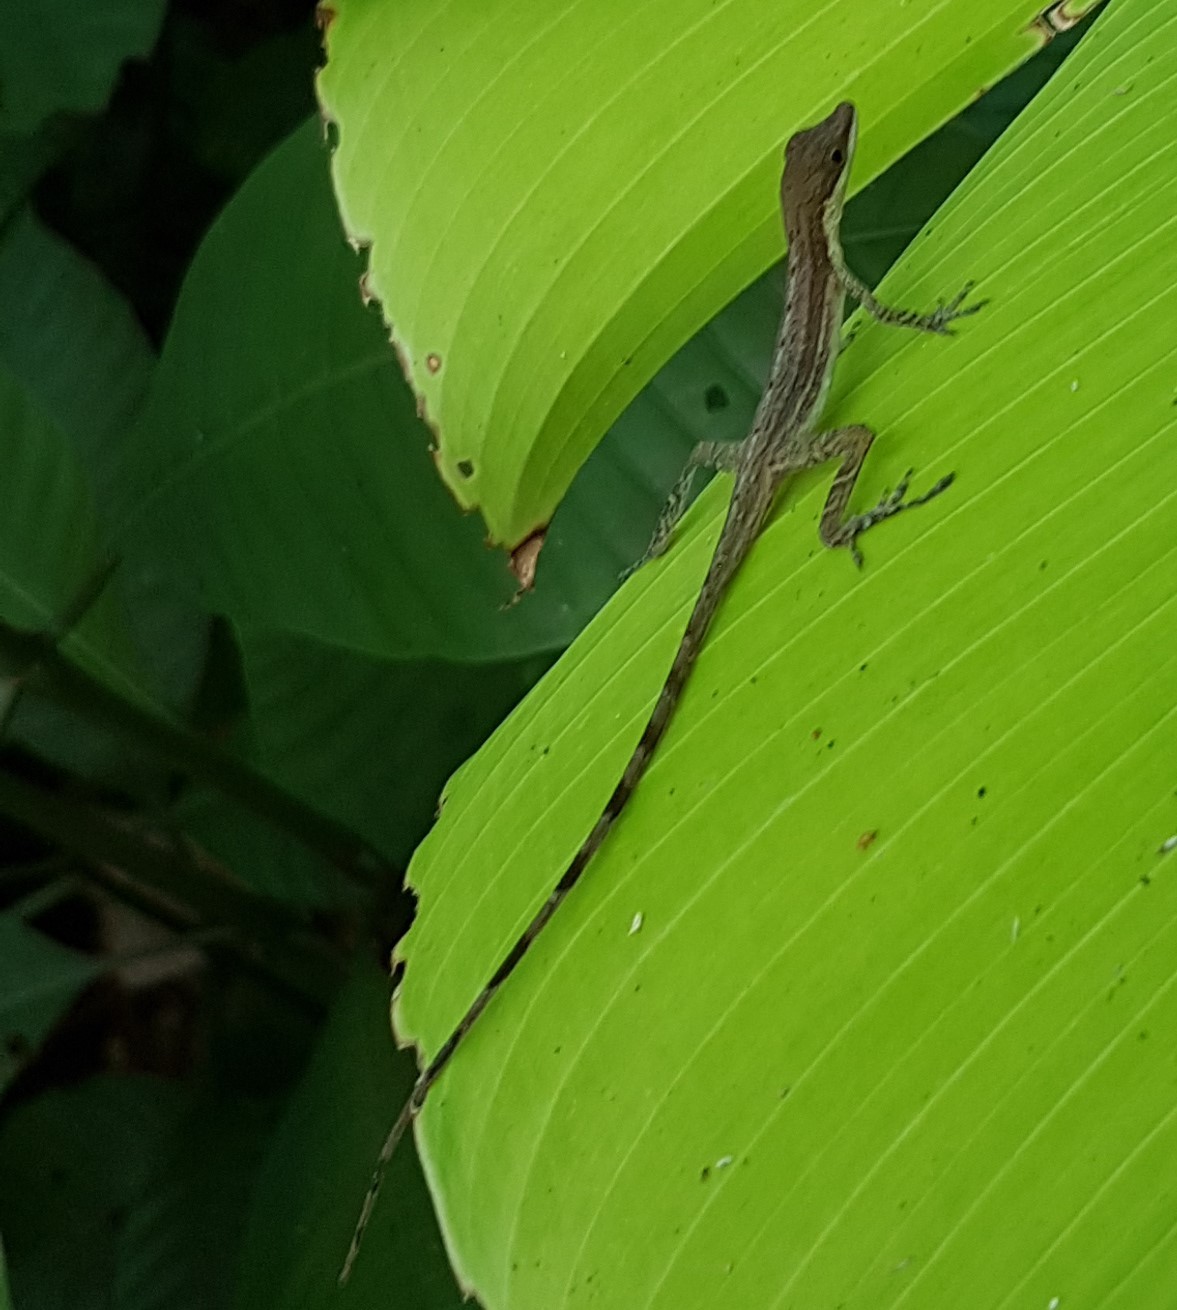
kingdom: Animalia
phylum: Chordata
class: Squamata
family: Dactyloidae
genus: Anolis
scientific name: Anolis limifrons
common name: Border anole
